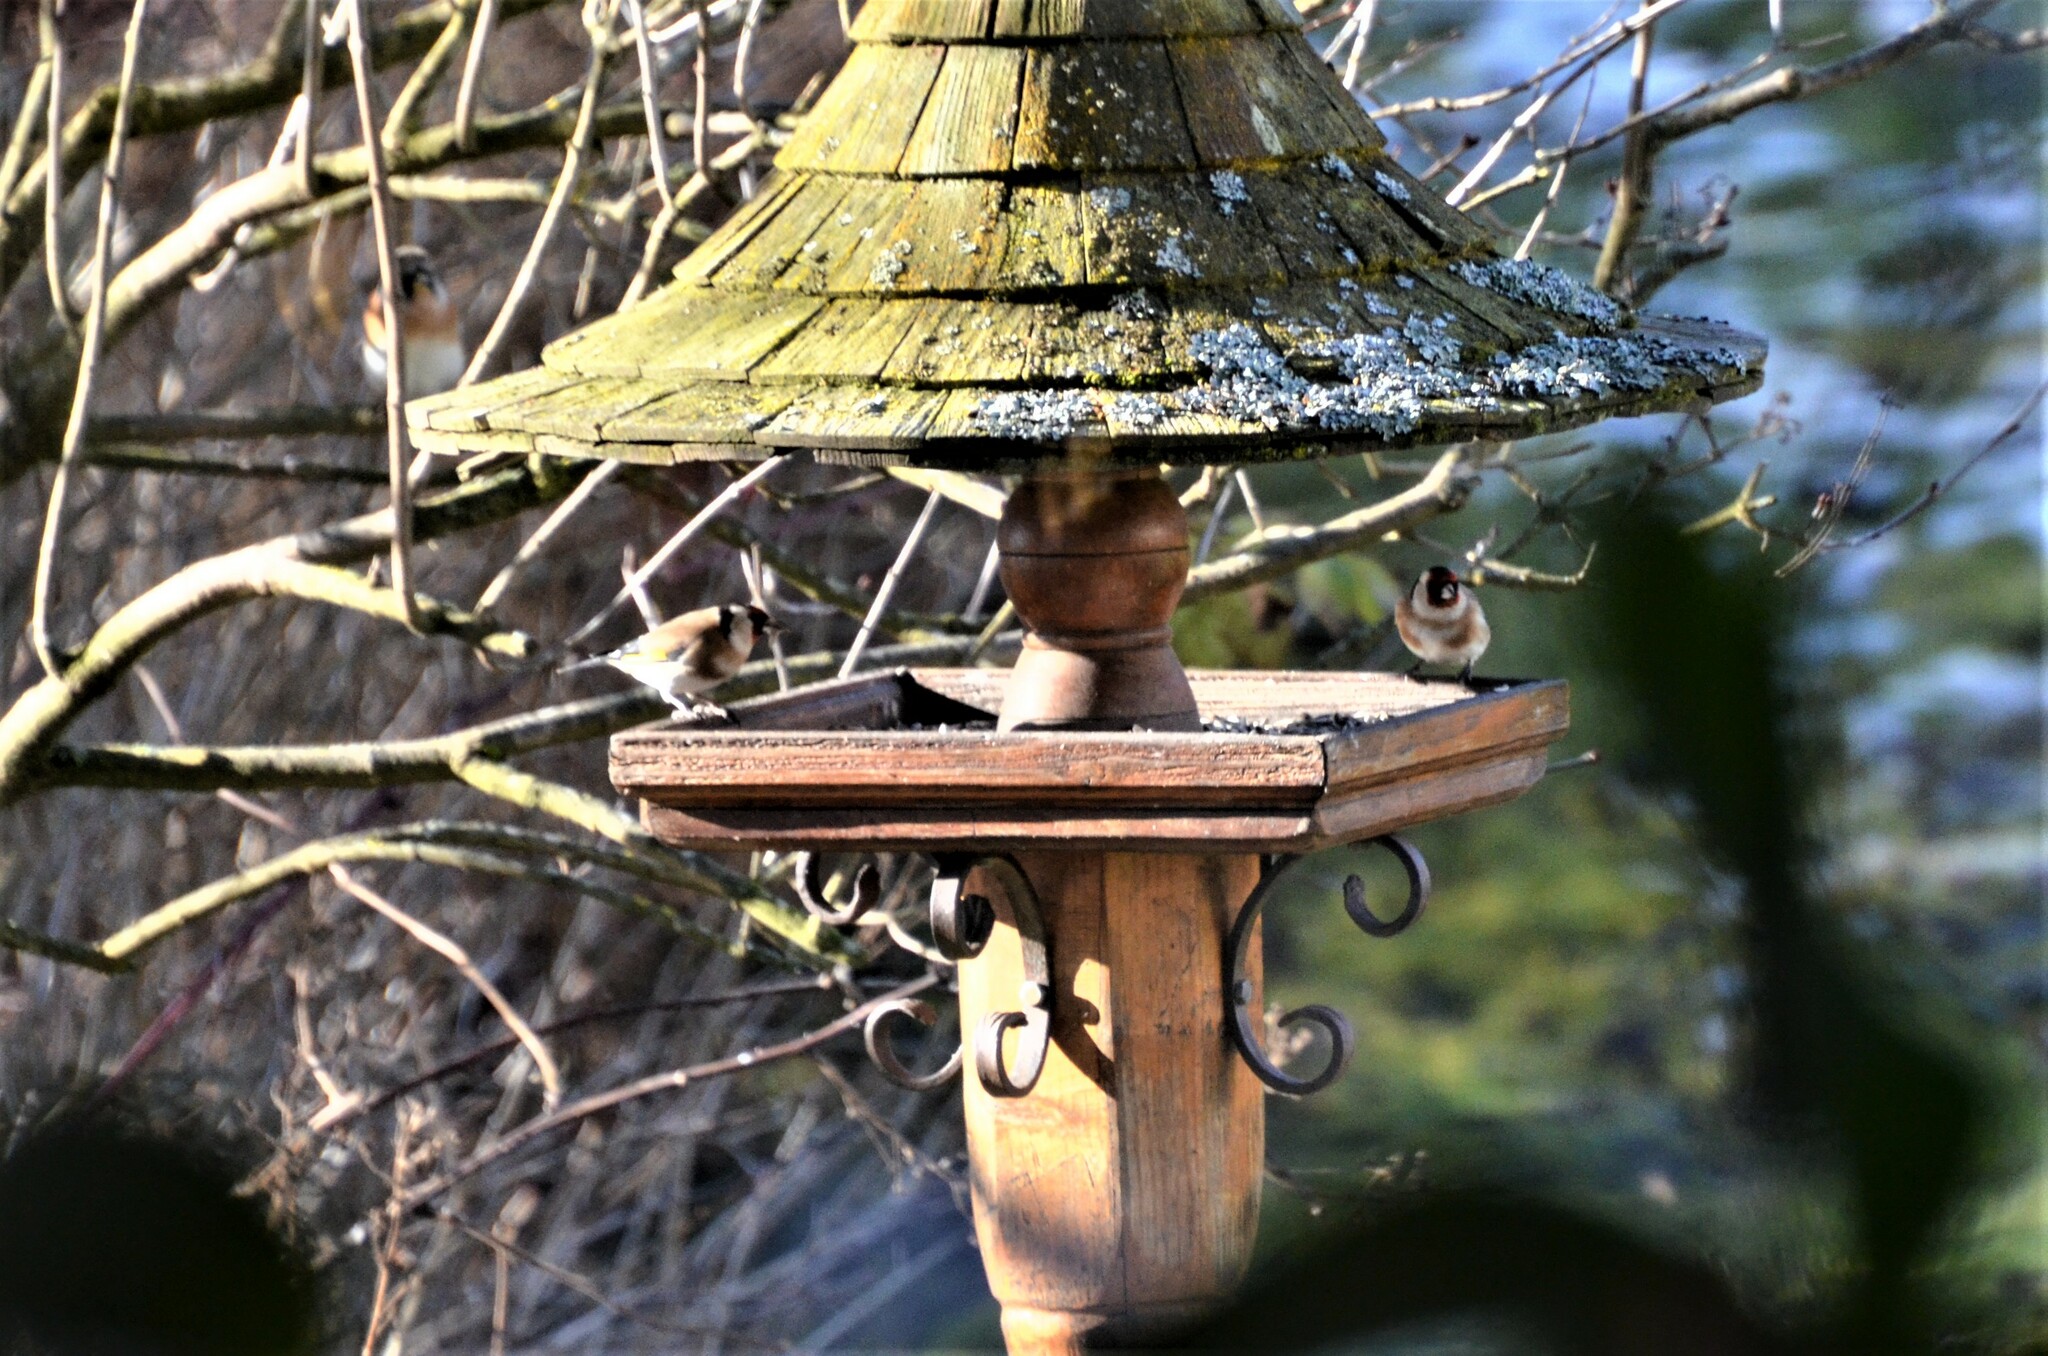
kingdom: Animalia
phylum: Chordata
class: Aves
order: Passeriformes
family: Fringillidae
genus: Carduelis
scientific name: Carduelis carduelis
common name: European goldfinch
